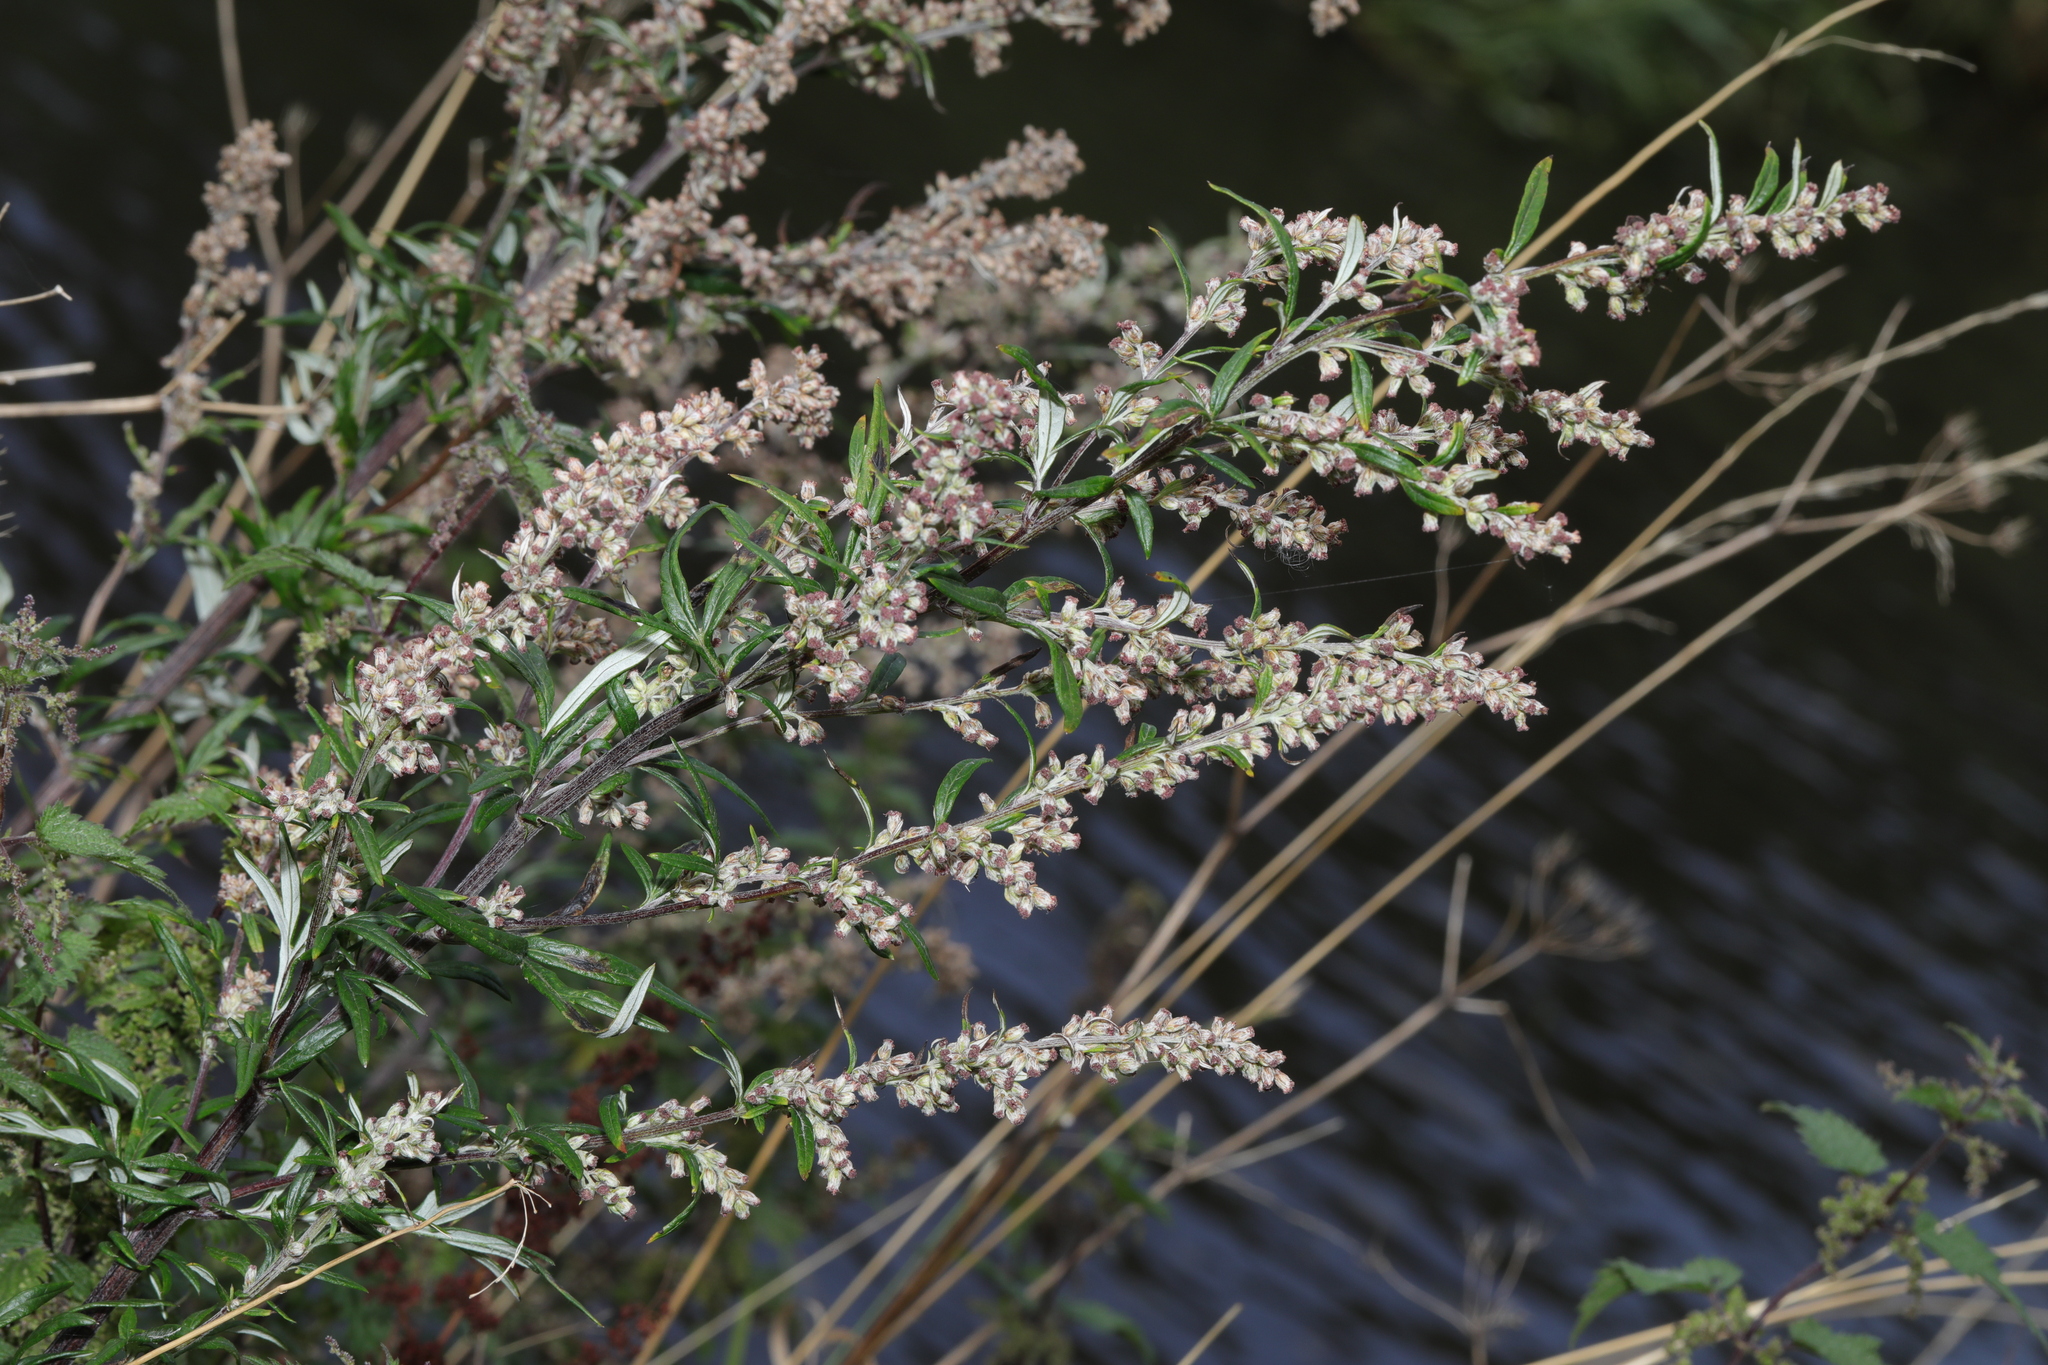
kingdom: Plantae
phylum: Tracheophyta
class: Magnoliopsida
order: Asterales
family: Asteraceae
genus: Artemisia
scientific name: Artemisia vulgaris
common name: Mugwort
